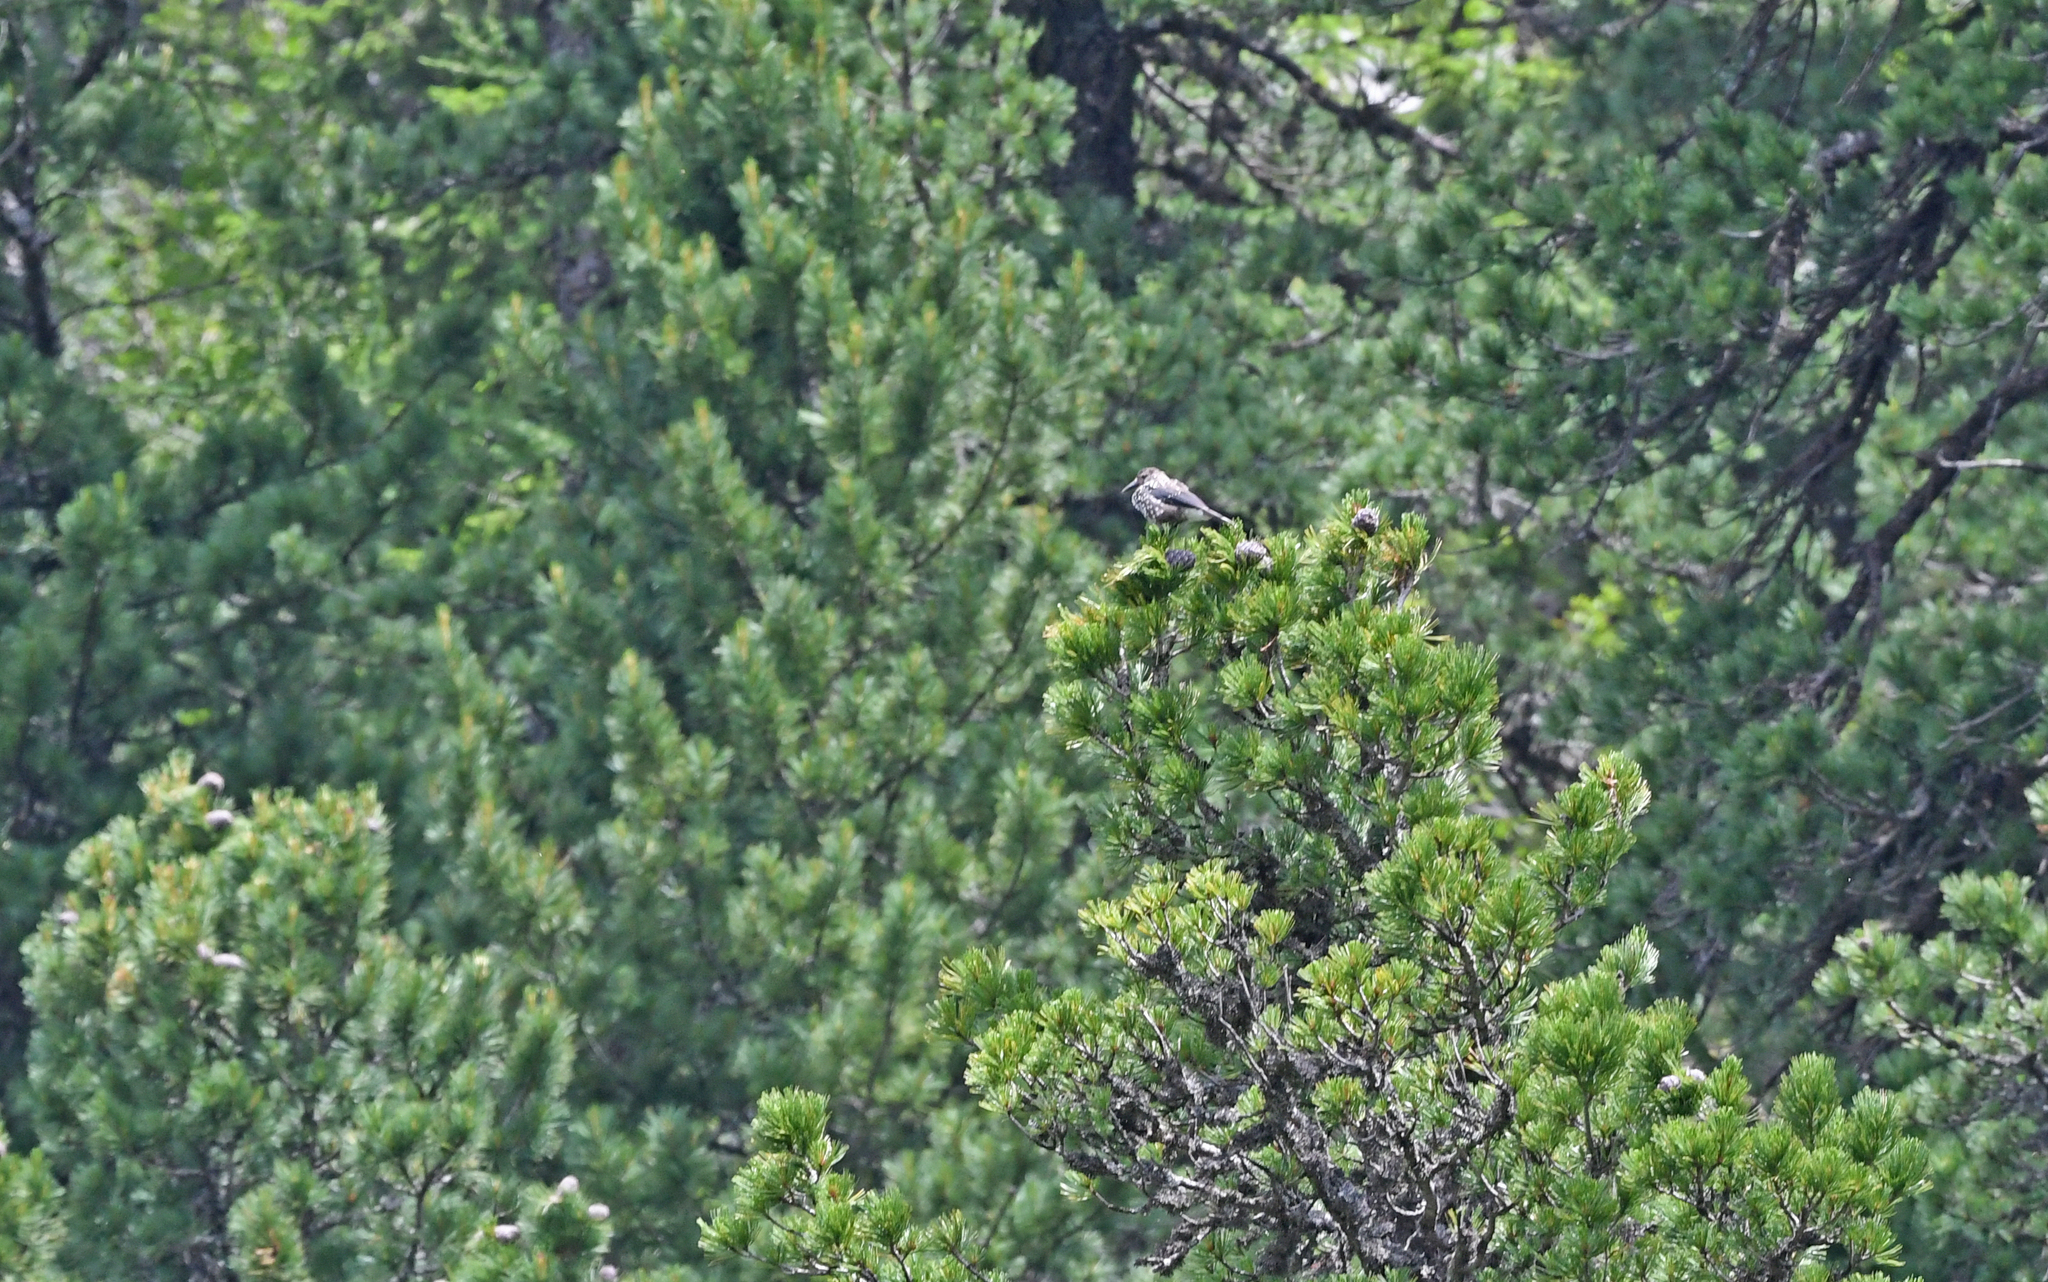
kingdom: Animalia
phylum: Chordata
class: Aves
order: Passeriformes
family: Corvidae
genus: Nucifraga
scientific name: Nucifraga caryocatactes
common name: Spotted nutcracker
